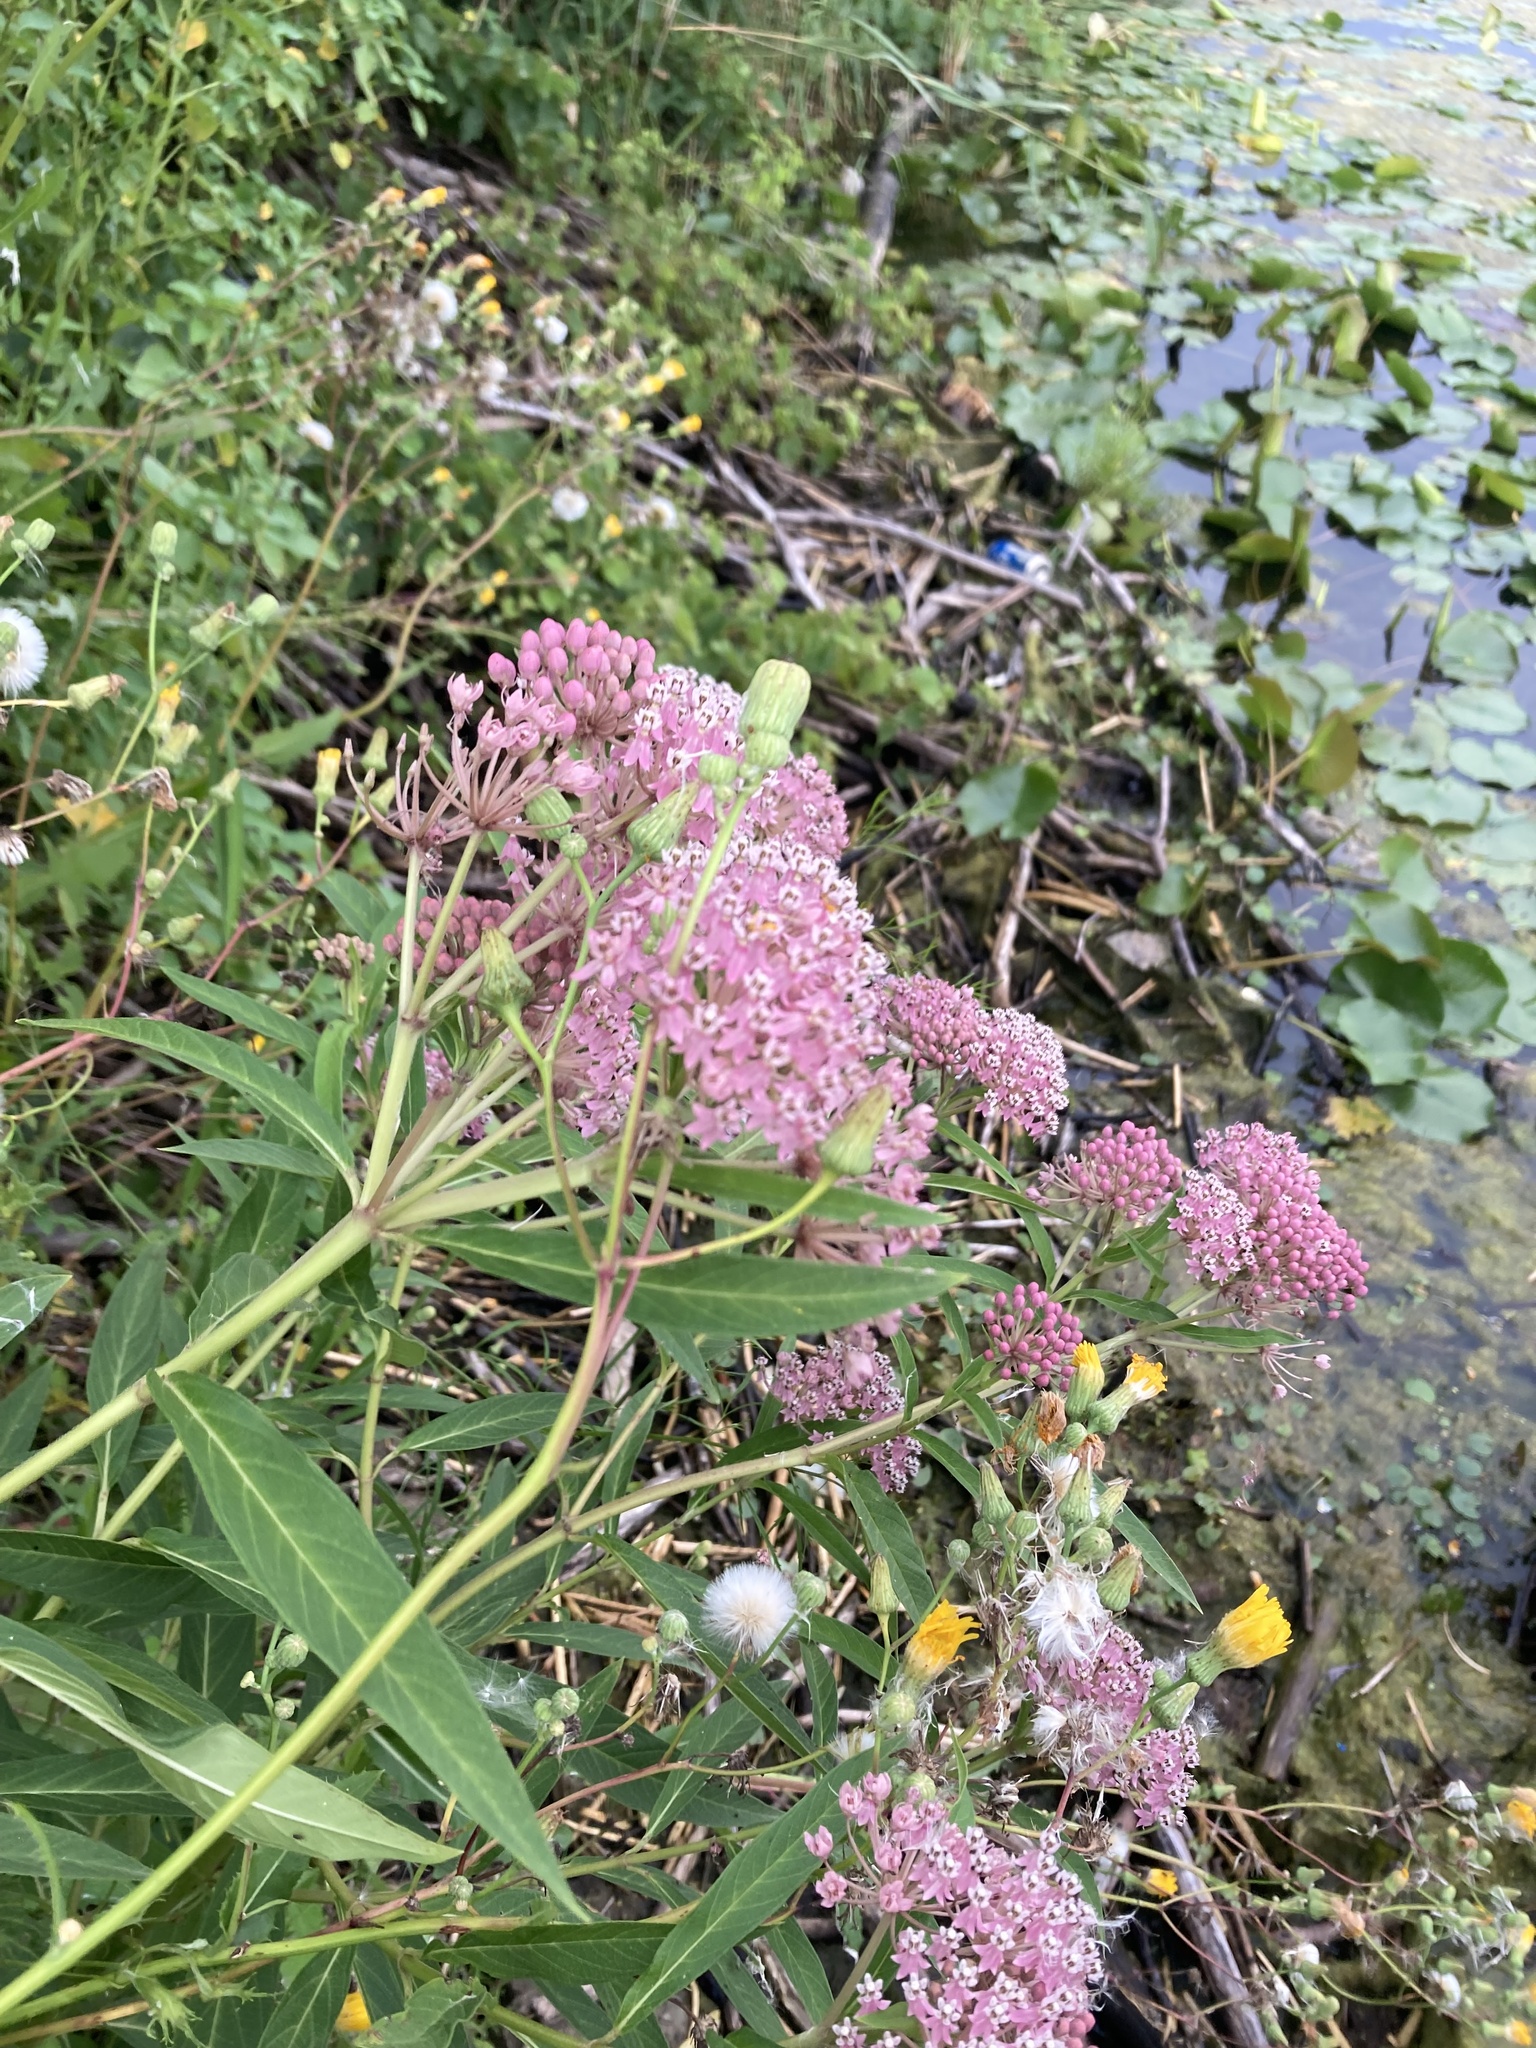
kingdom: Plantae
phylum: Tracheophyta
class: Magnoliopsida
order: Gentianales
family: Apocynaceae
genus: Asclepias
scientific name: Asclepias incarnata
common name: Swamp milkweed
